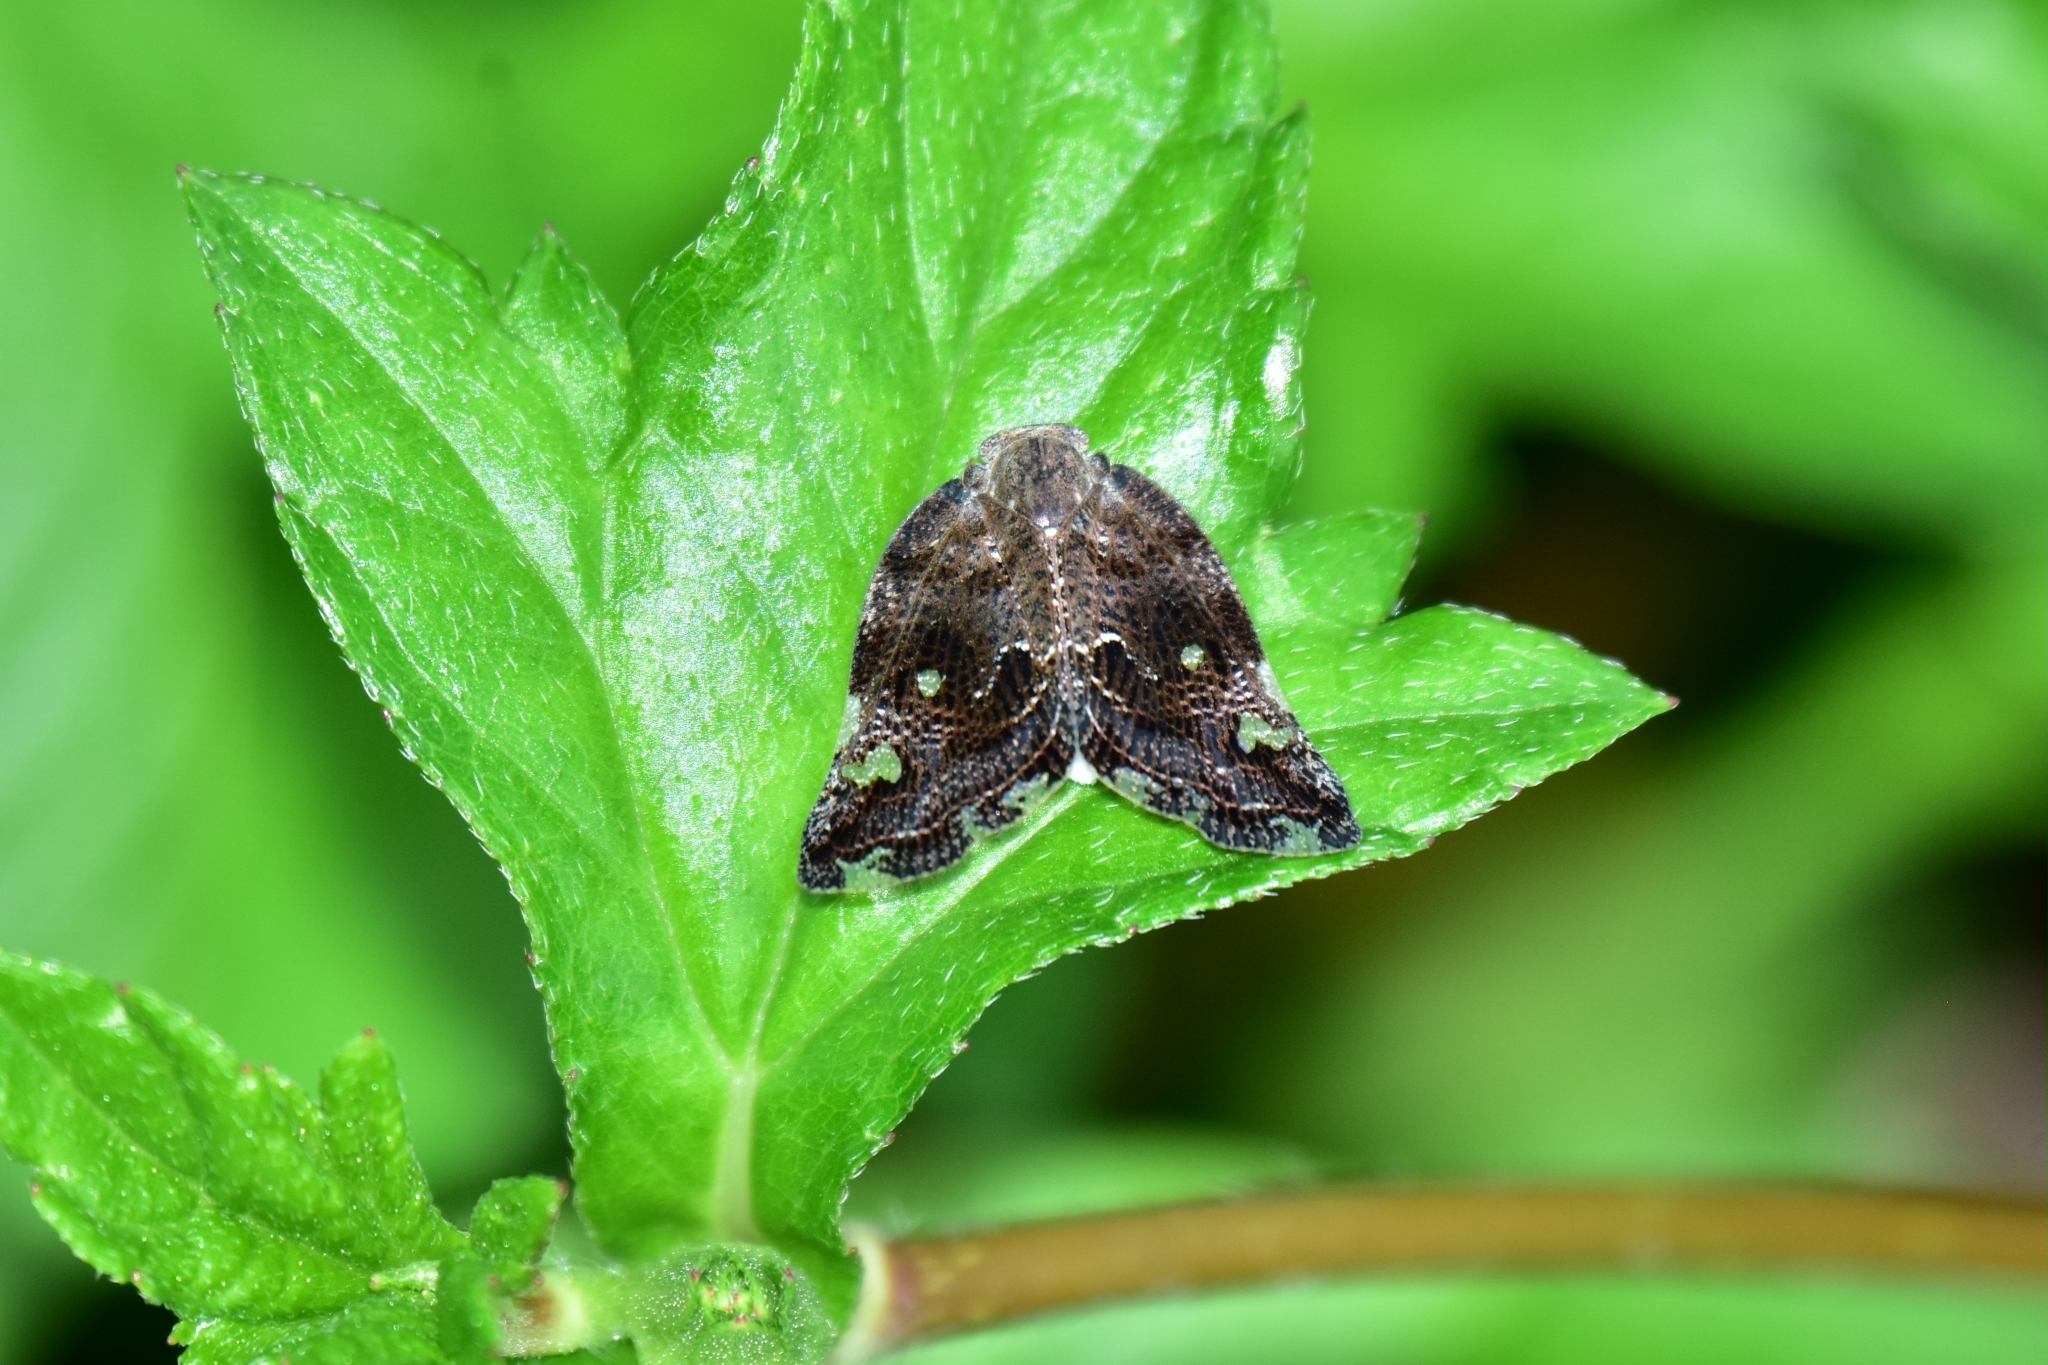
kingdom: Animalia
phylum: Arthropoda
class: Insecta
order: Hemiptera
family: Ricaniidae
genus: Ricania
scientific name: Ricania speculum
